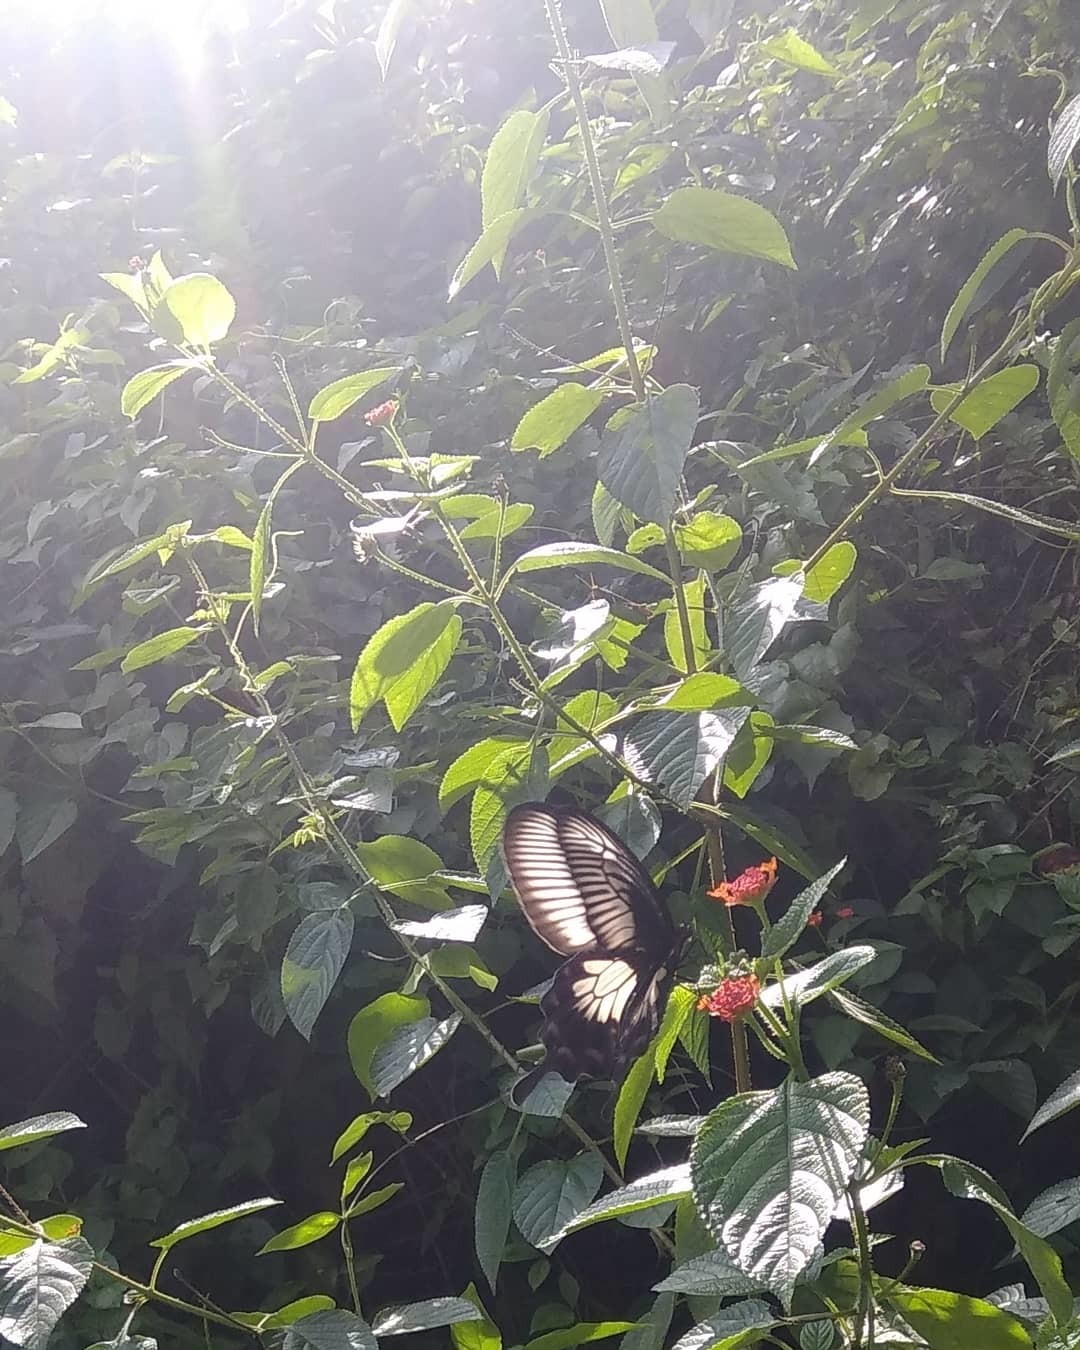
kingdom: Animalia
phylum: Arthropoda
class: Insecta
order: Lepidoptera
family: Papilionidae
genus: Pachliopta
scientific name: Pachliopta pandiyana
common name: Malabar rose
